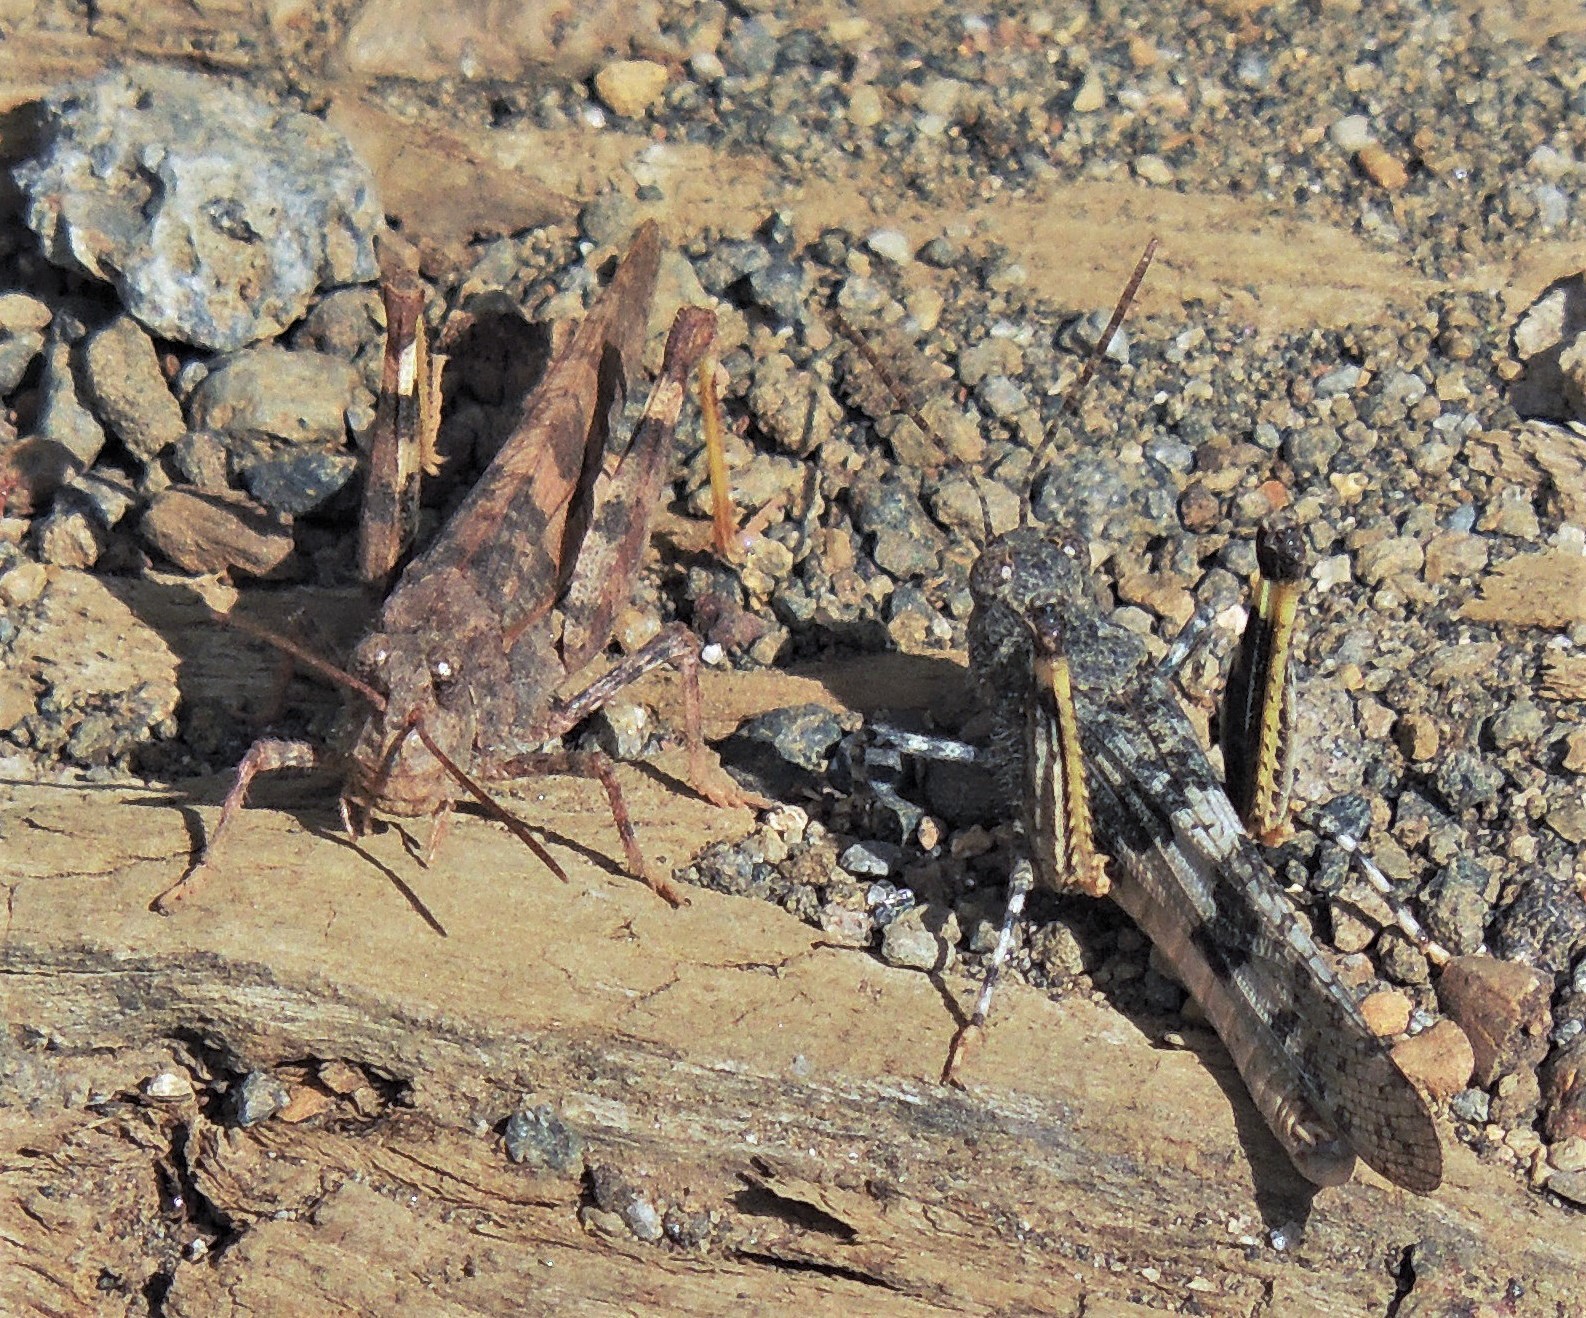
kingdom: Animalia
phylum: Arthropoda
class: Insecta
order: Orthoptera
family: Acrididae
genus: Trimerotropis
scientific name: Trimerotropis pallidipennis
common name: Pallid-winged grasshopper
